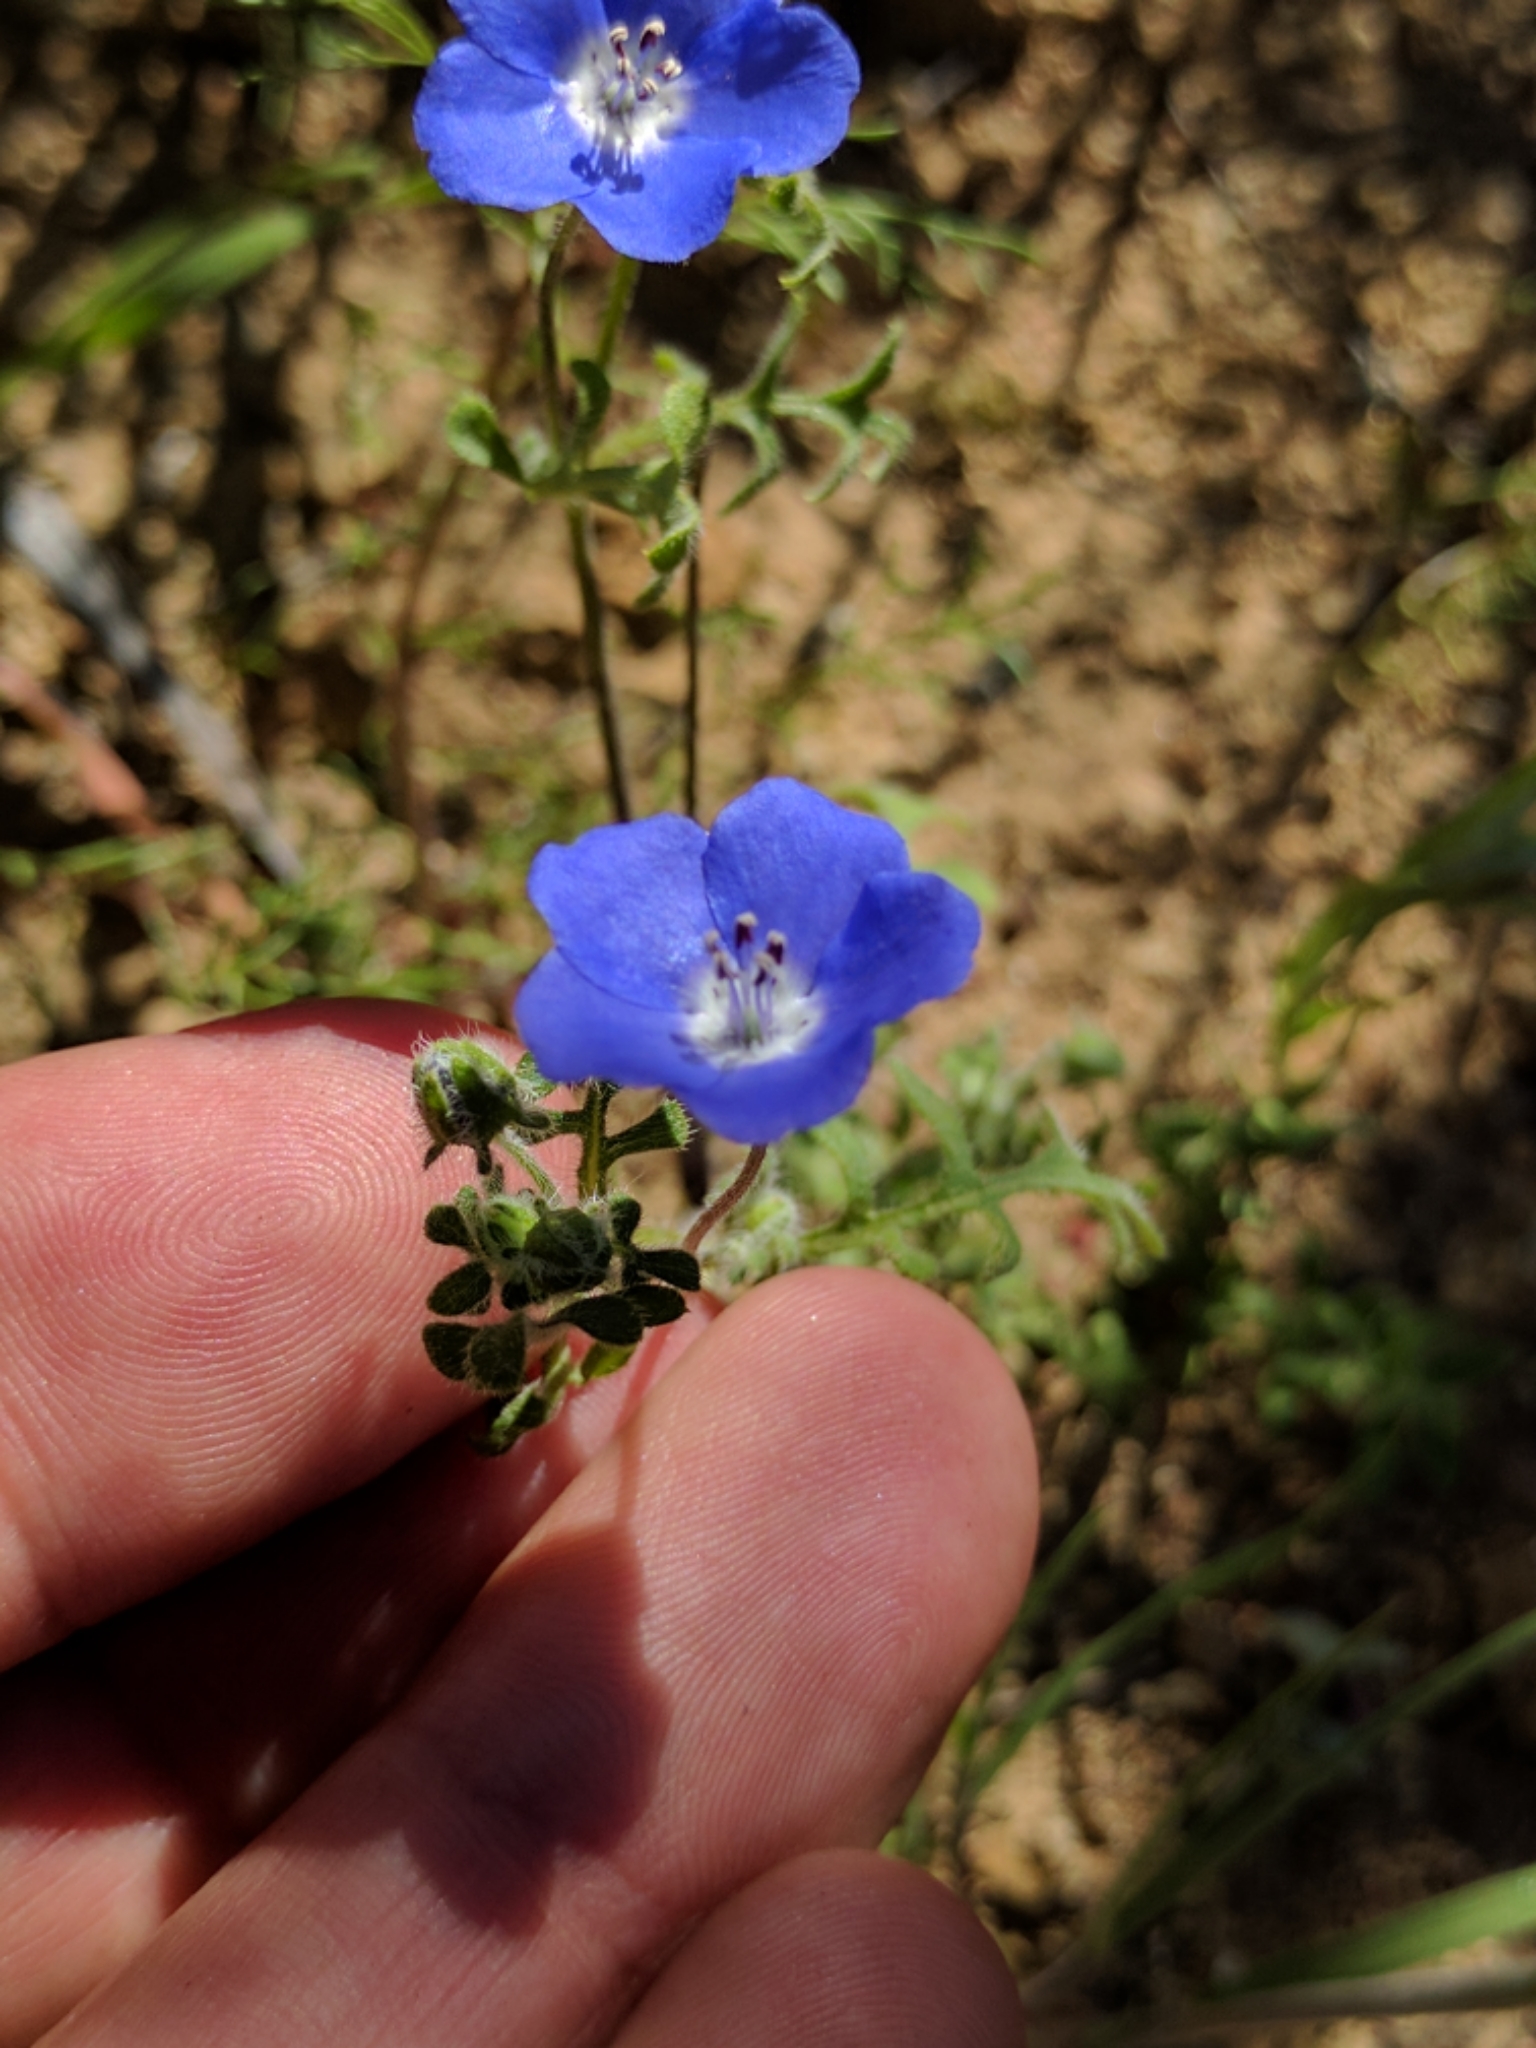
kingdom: Plantae
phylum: Tracheophyta
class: Magnoliopsida
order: Boraginales
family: Hydrophyllaceae
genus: Nemophila
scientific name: Nemophila menziesii
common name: Baby's-blue-eyes
